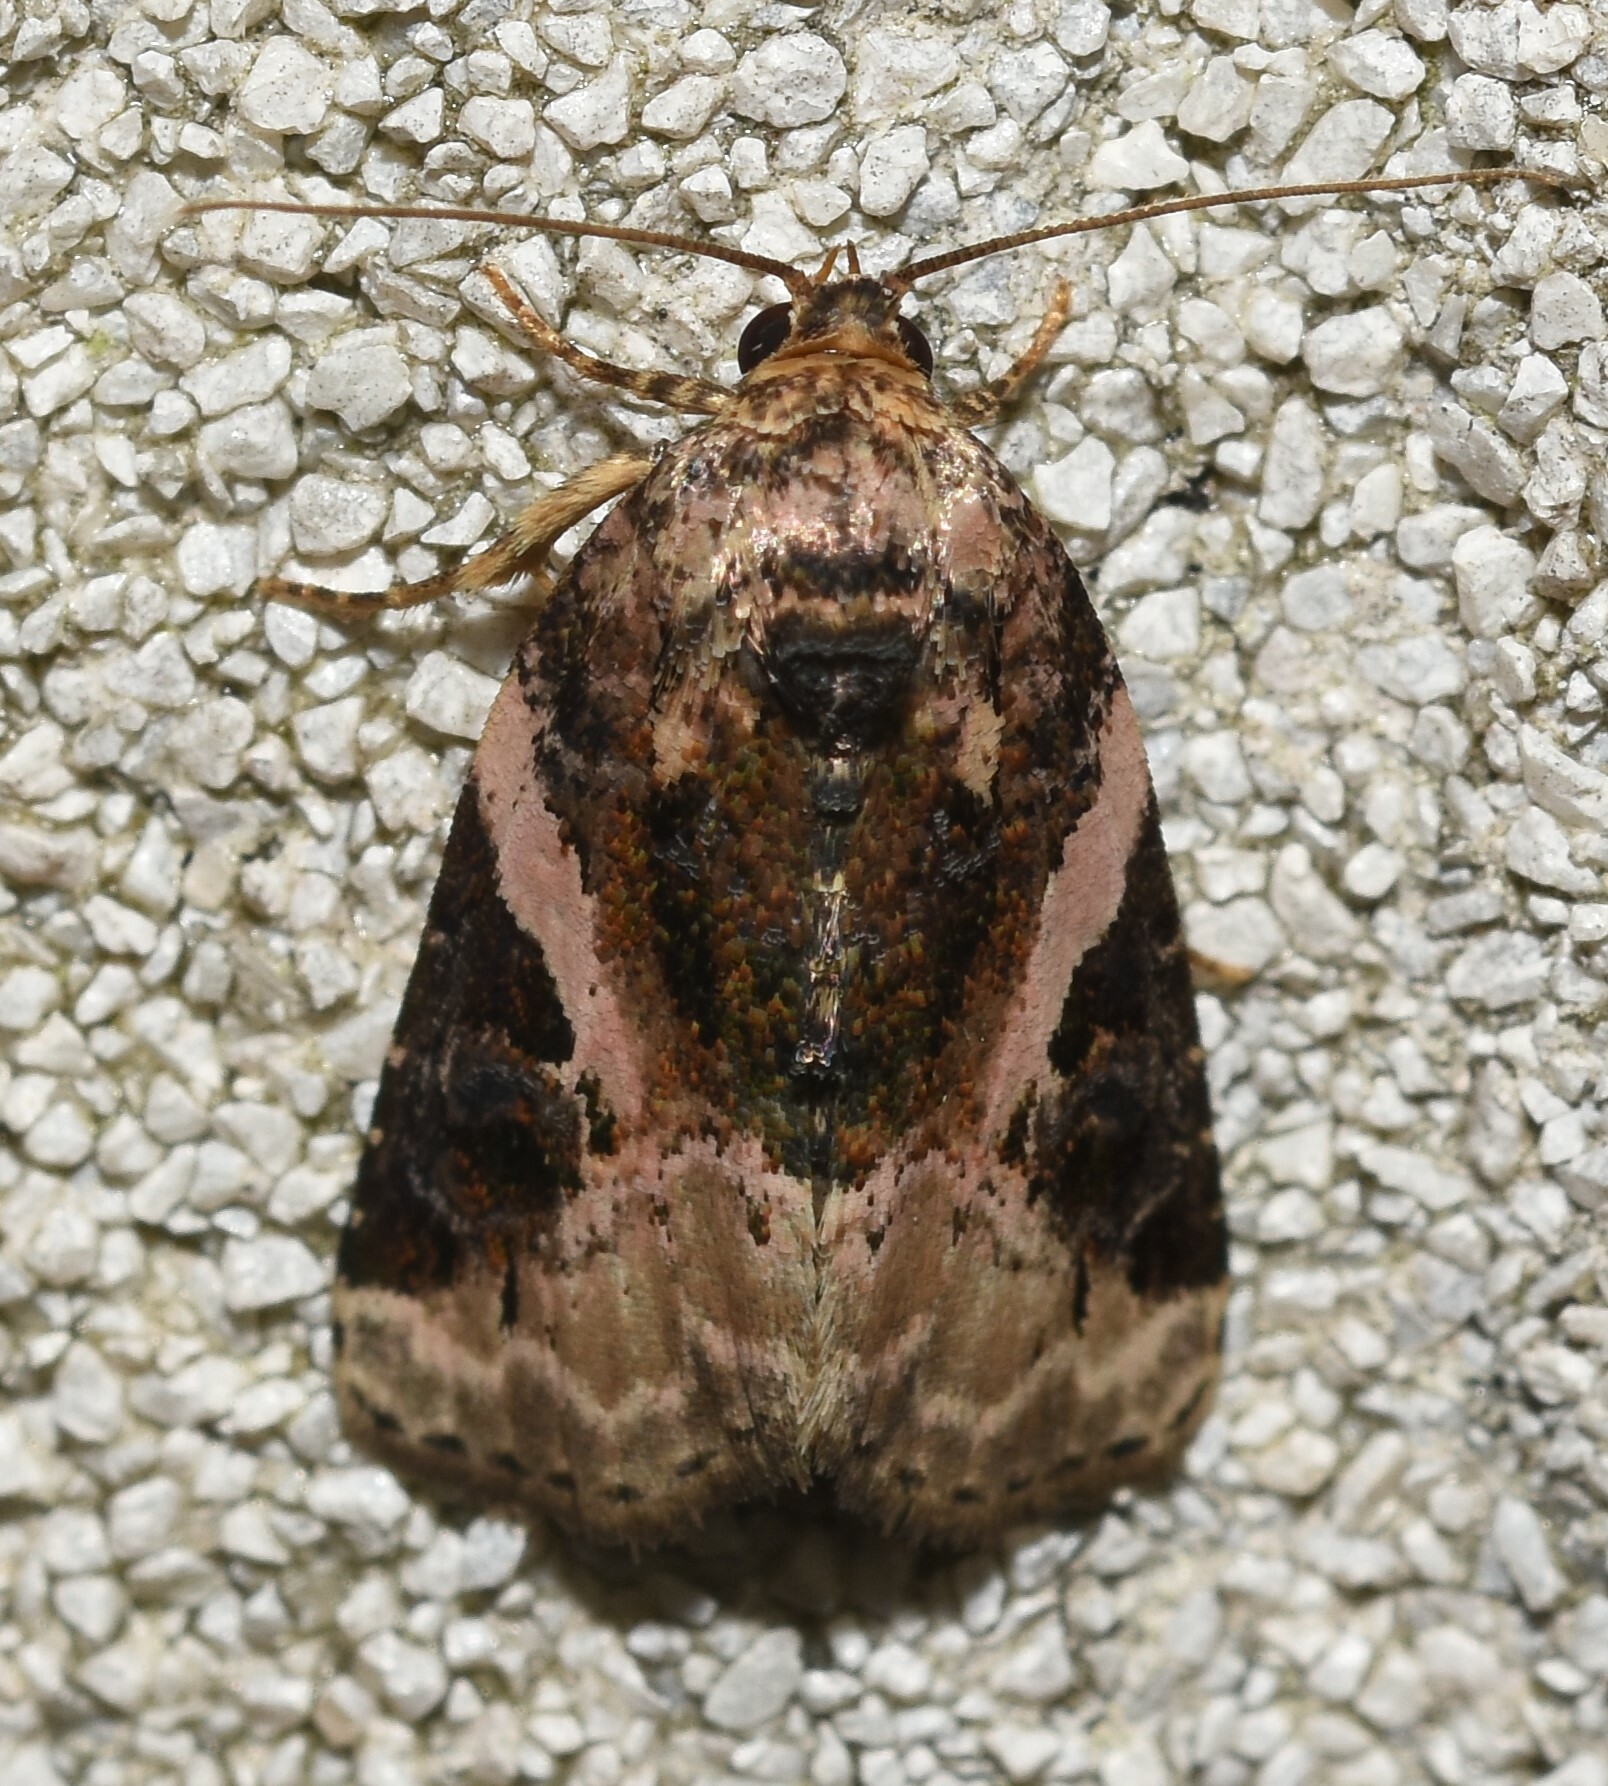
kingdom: Animalia
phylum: Arthropoda
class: Insecta
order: Lepidoptera
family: Noctuidae
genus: Pseudeustrotia
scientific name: Pseudeustrotia carneola
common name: Pink-barred lithacodia moth
